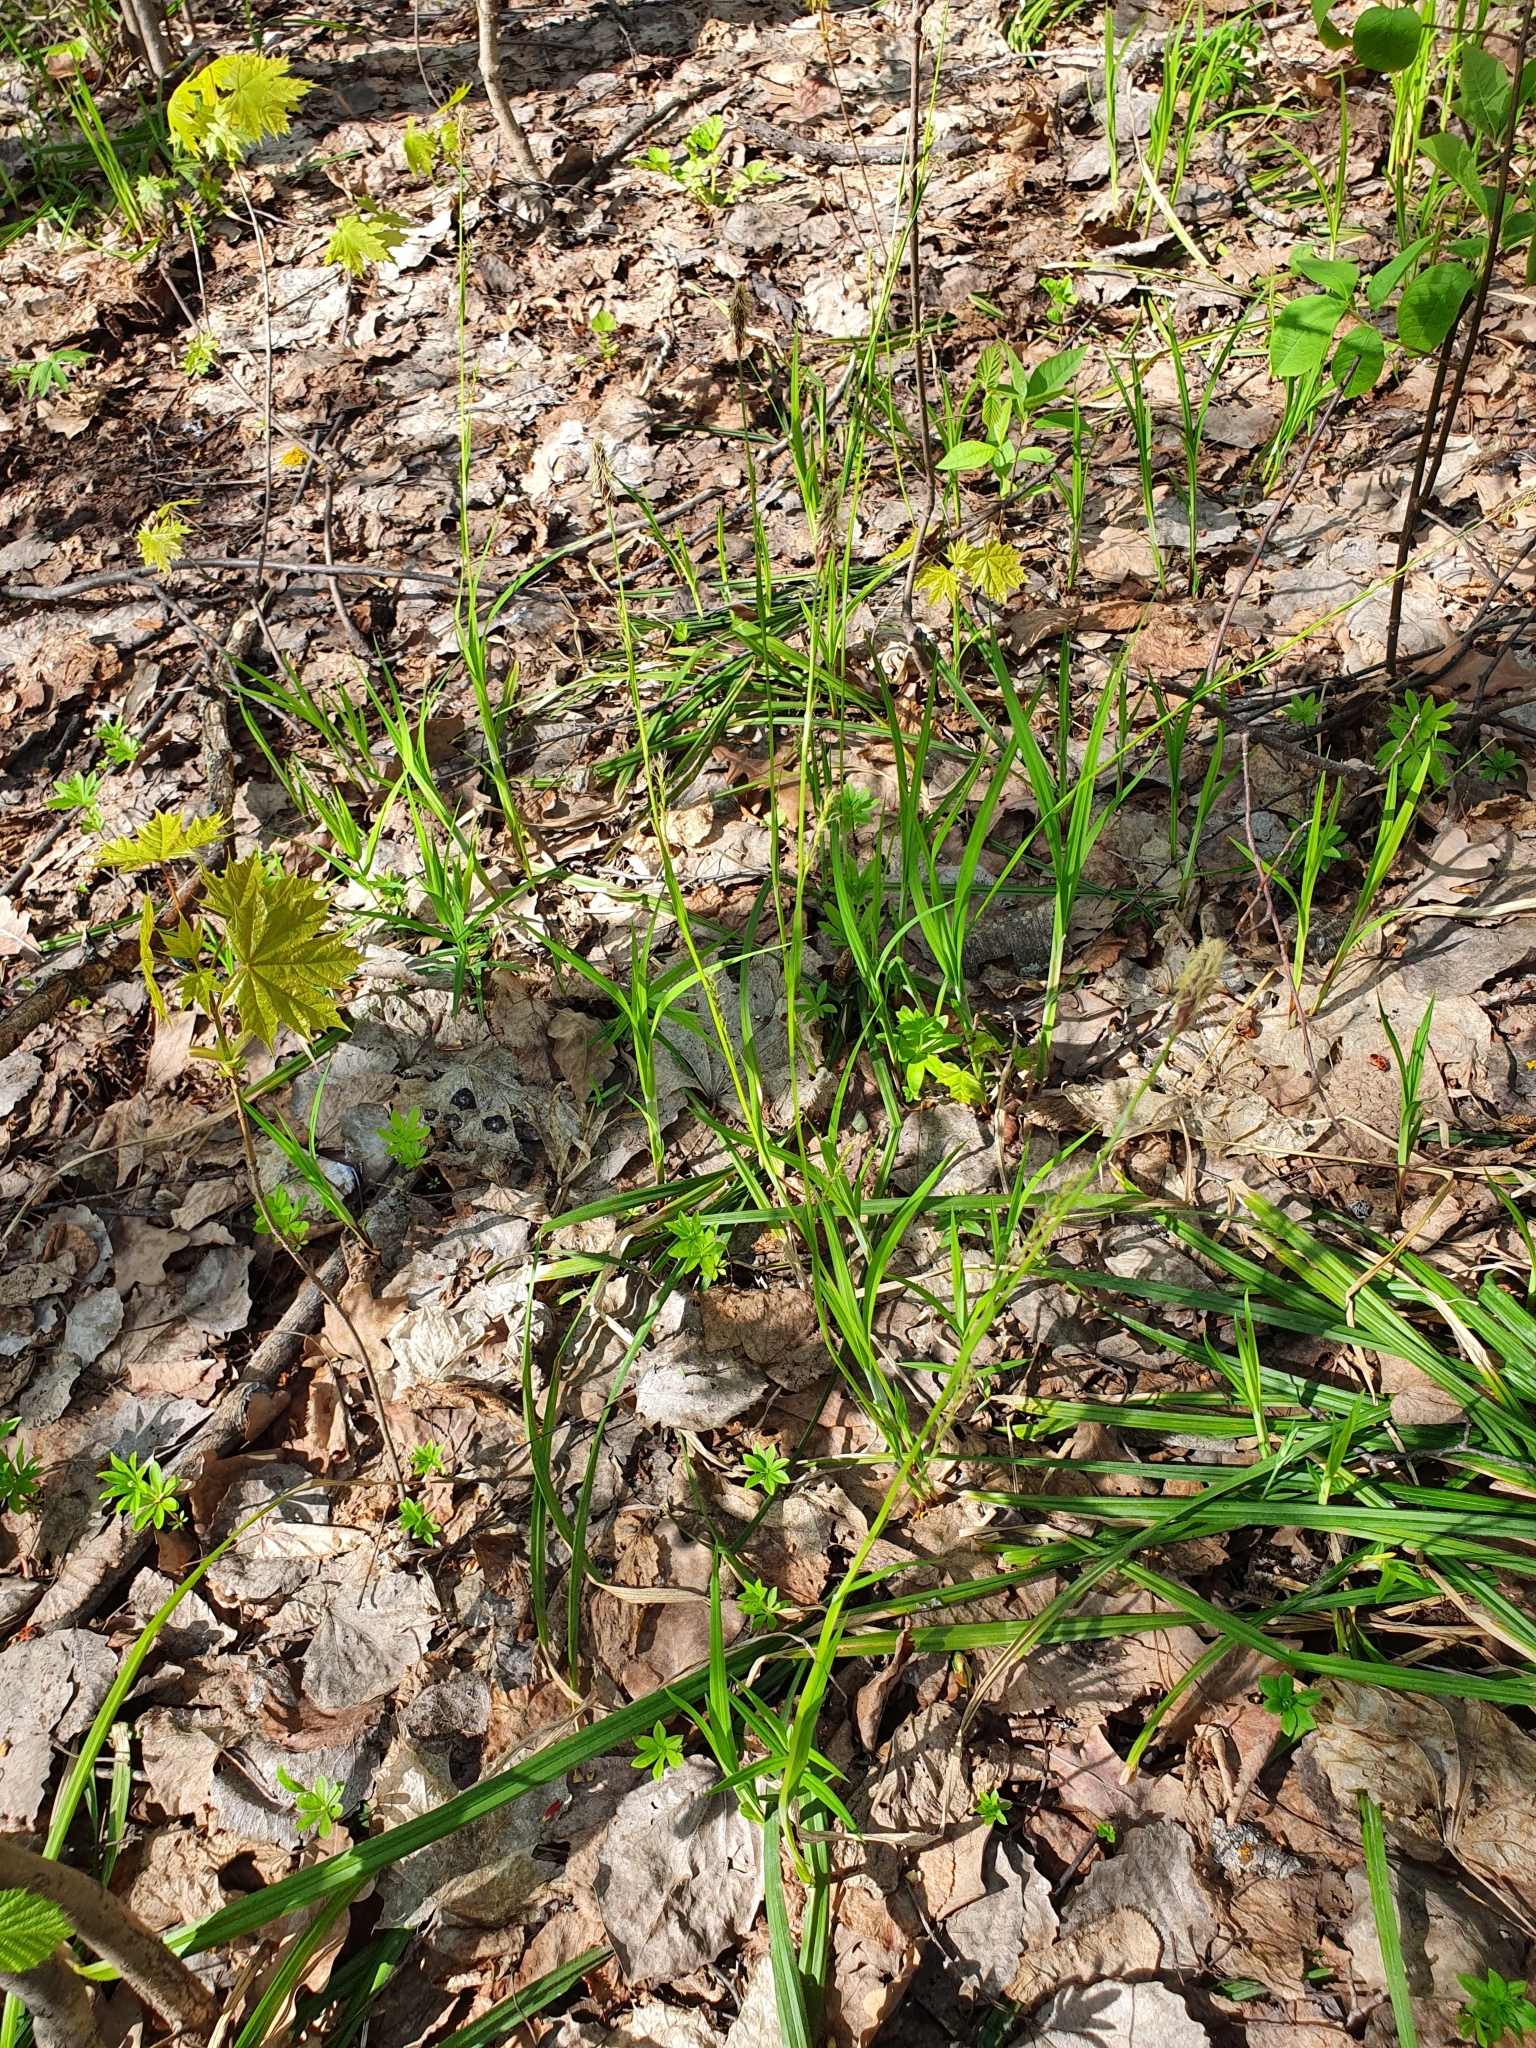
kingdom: Plantae
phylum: Tracheophyta
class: Liliopsida
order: Poales
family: Cyperaceae
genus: Carex
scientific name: Carex pilosa
